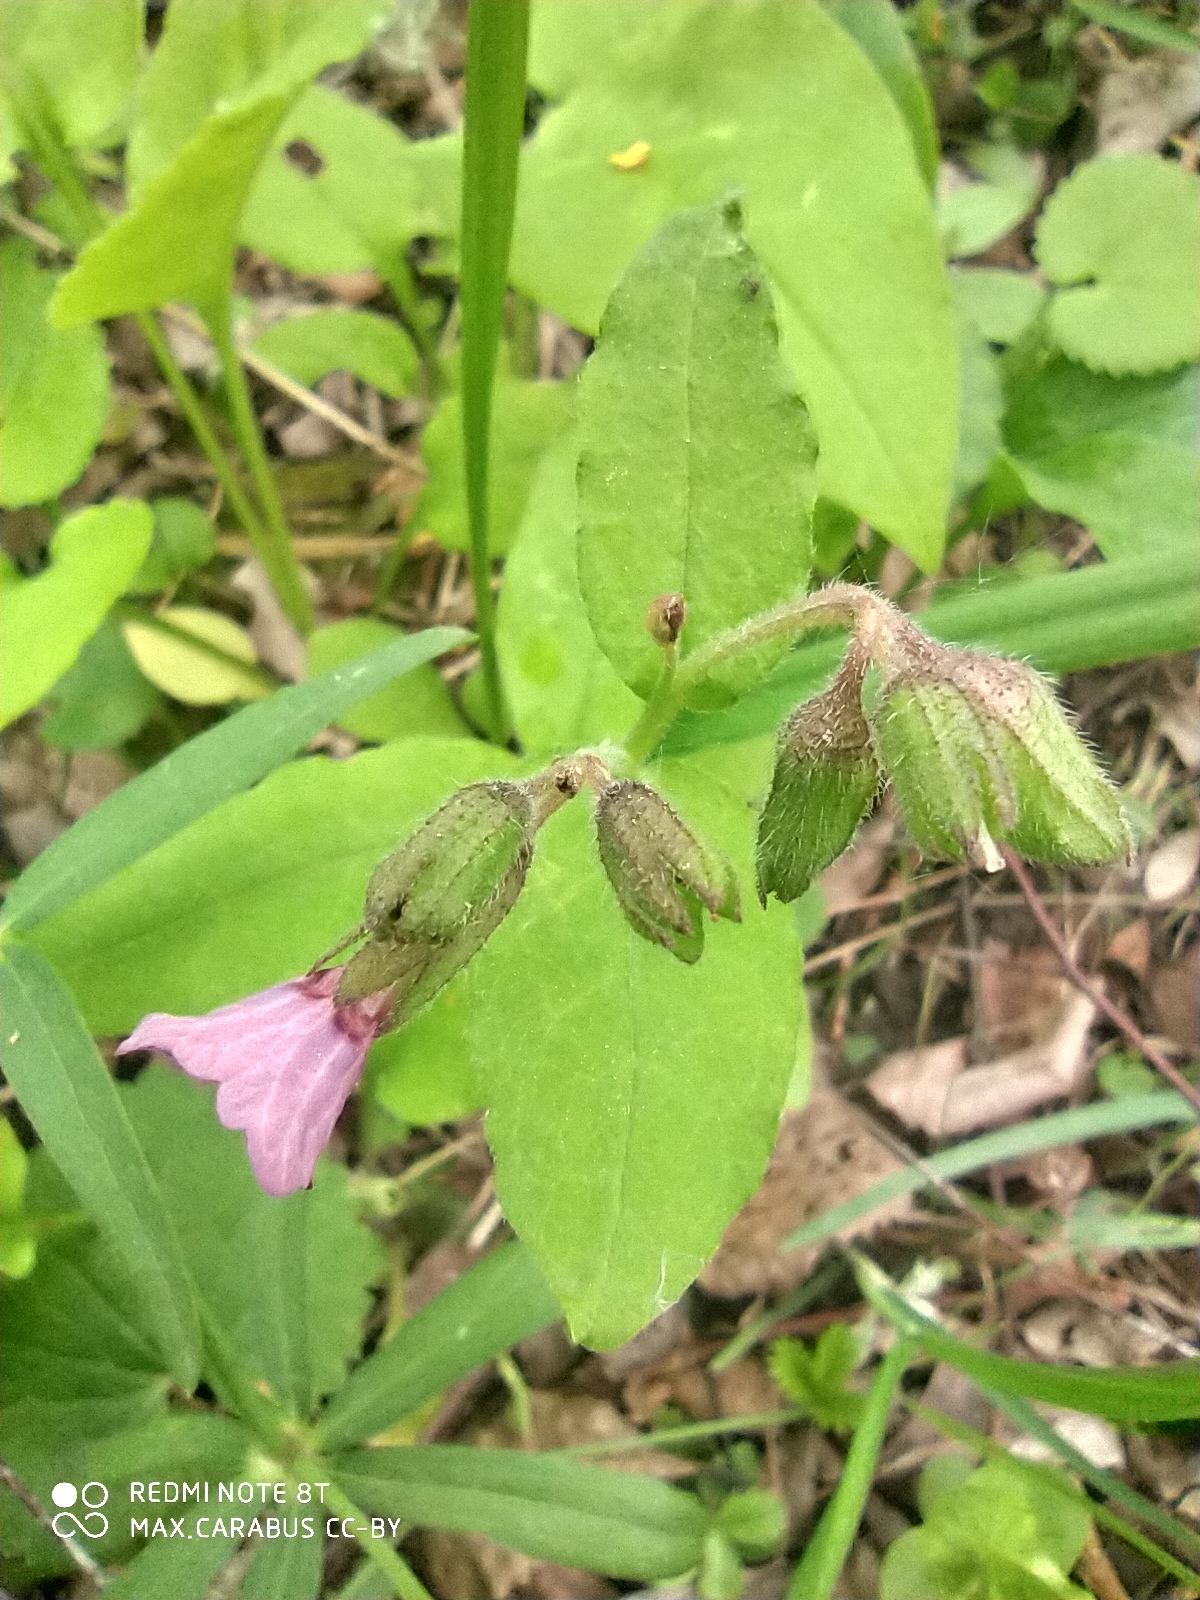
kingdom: Plantae
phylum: Tracheophyta
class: Magnoliopsida
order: Boraginales
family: Boraginaceae
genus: Pulmonaria
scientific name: Pulmonaria obscura
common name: Suffolk lungwort
